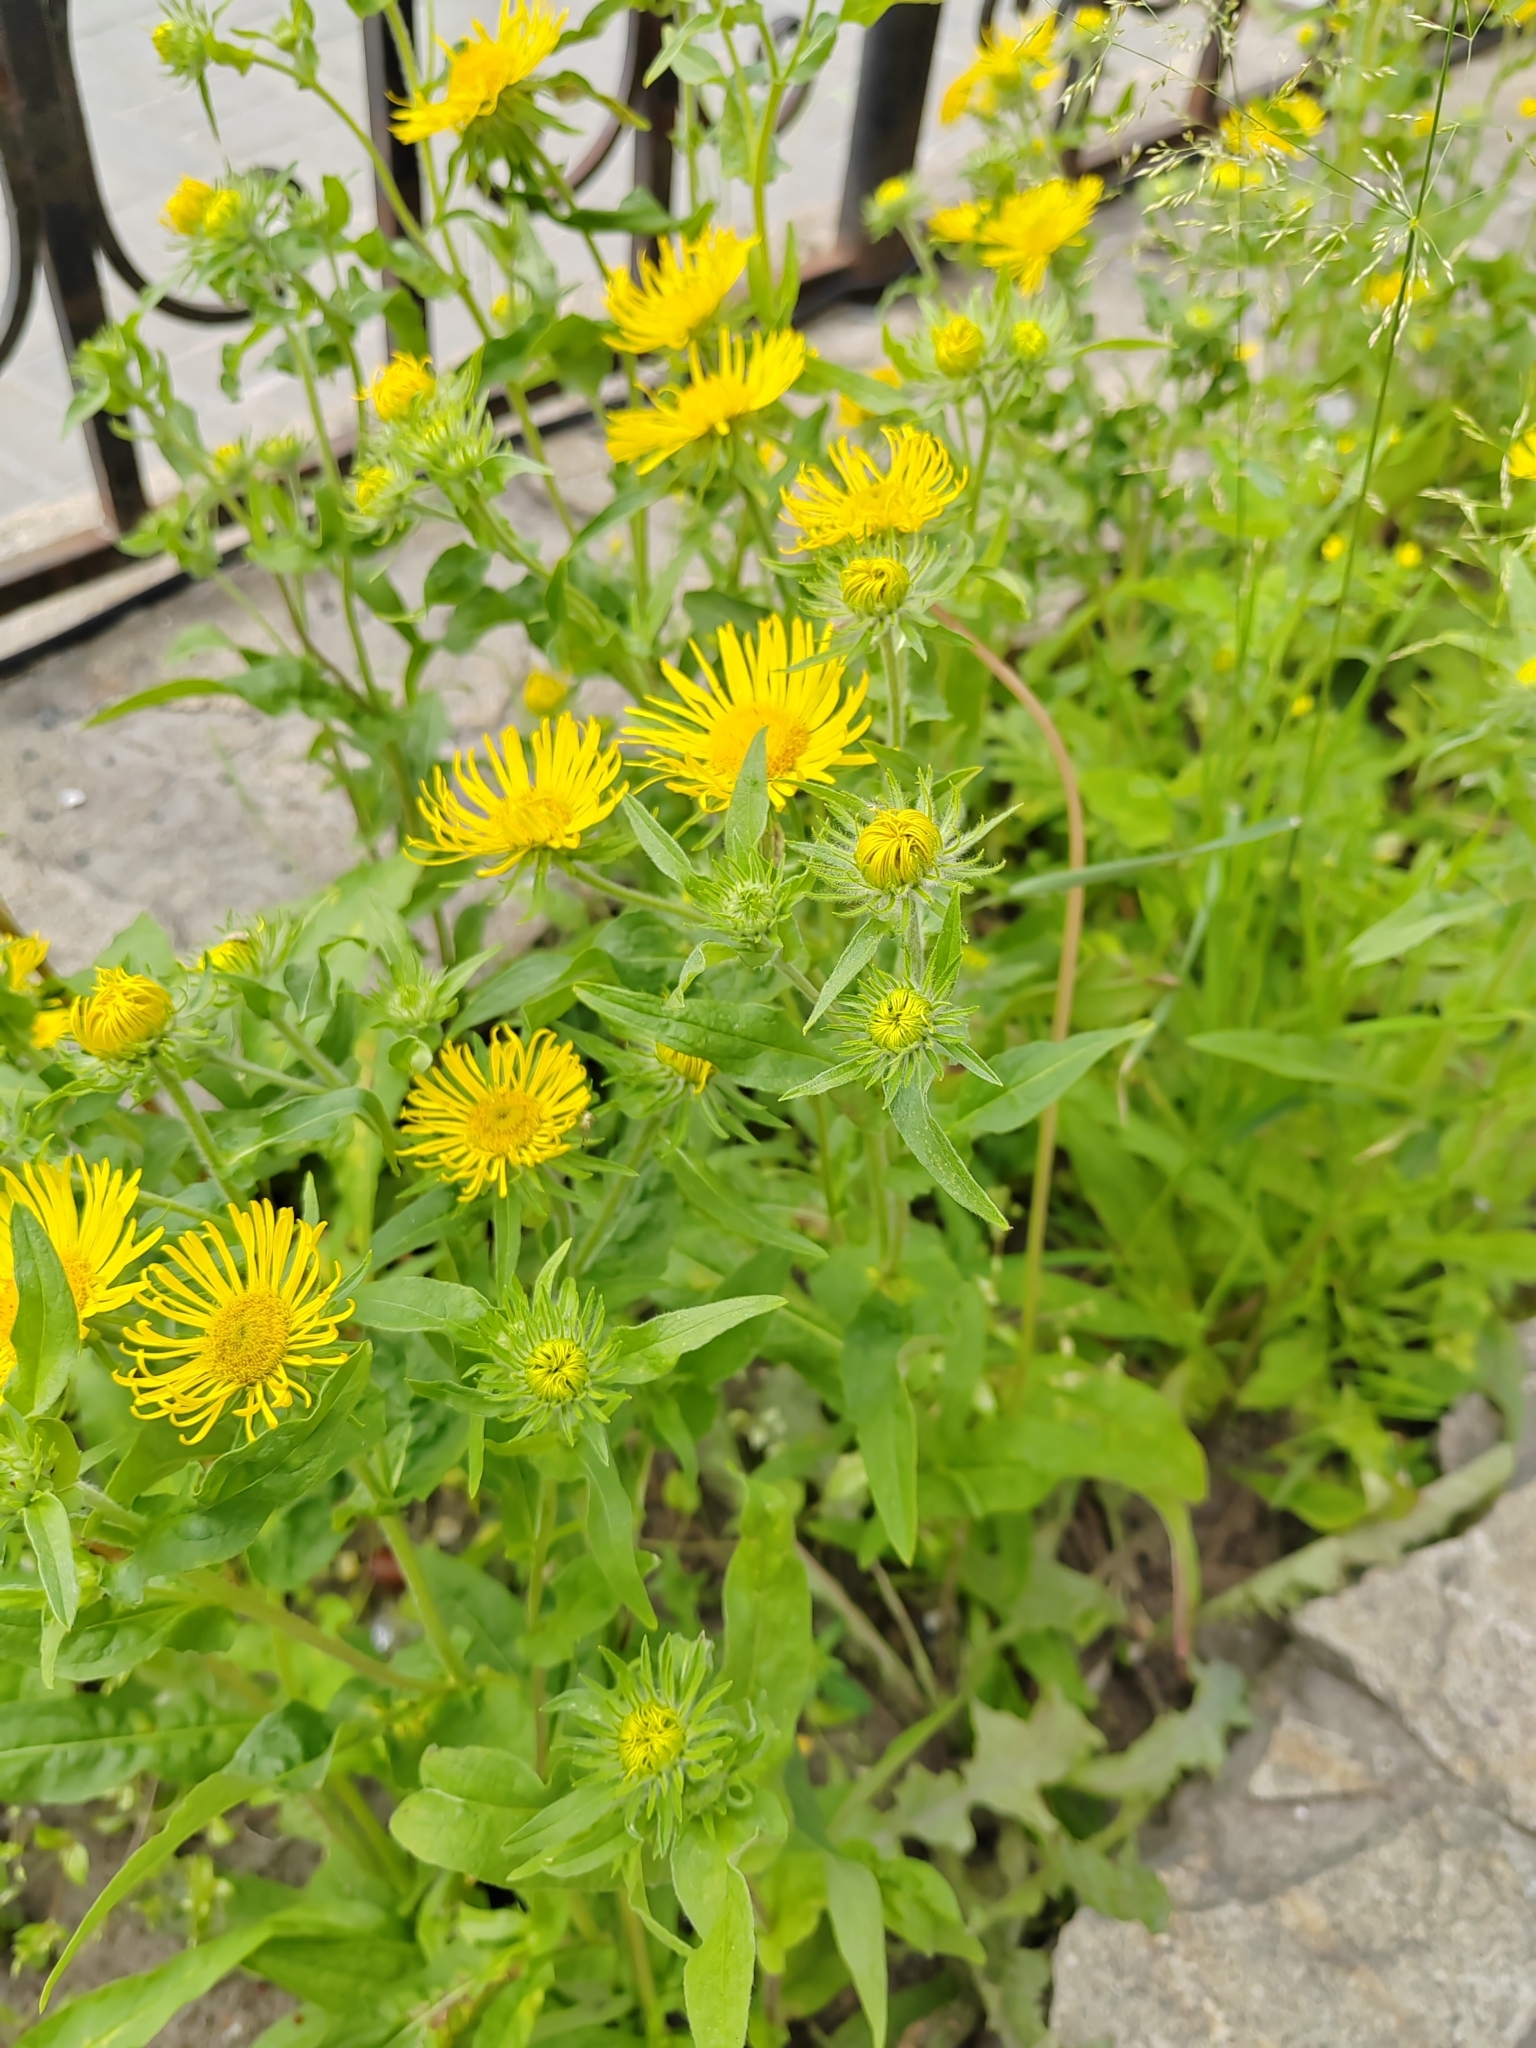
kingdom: Plantae
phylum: Tracheophyta
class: Magnoliopsida
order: Asterales
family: Asteraceae
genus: Pentanema
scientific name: Pentanema britannicum
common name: British elecampane
